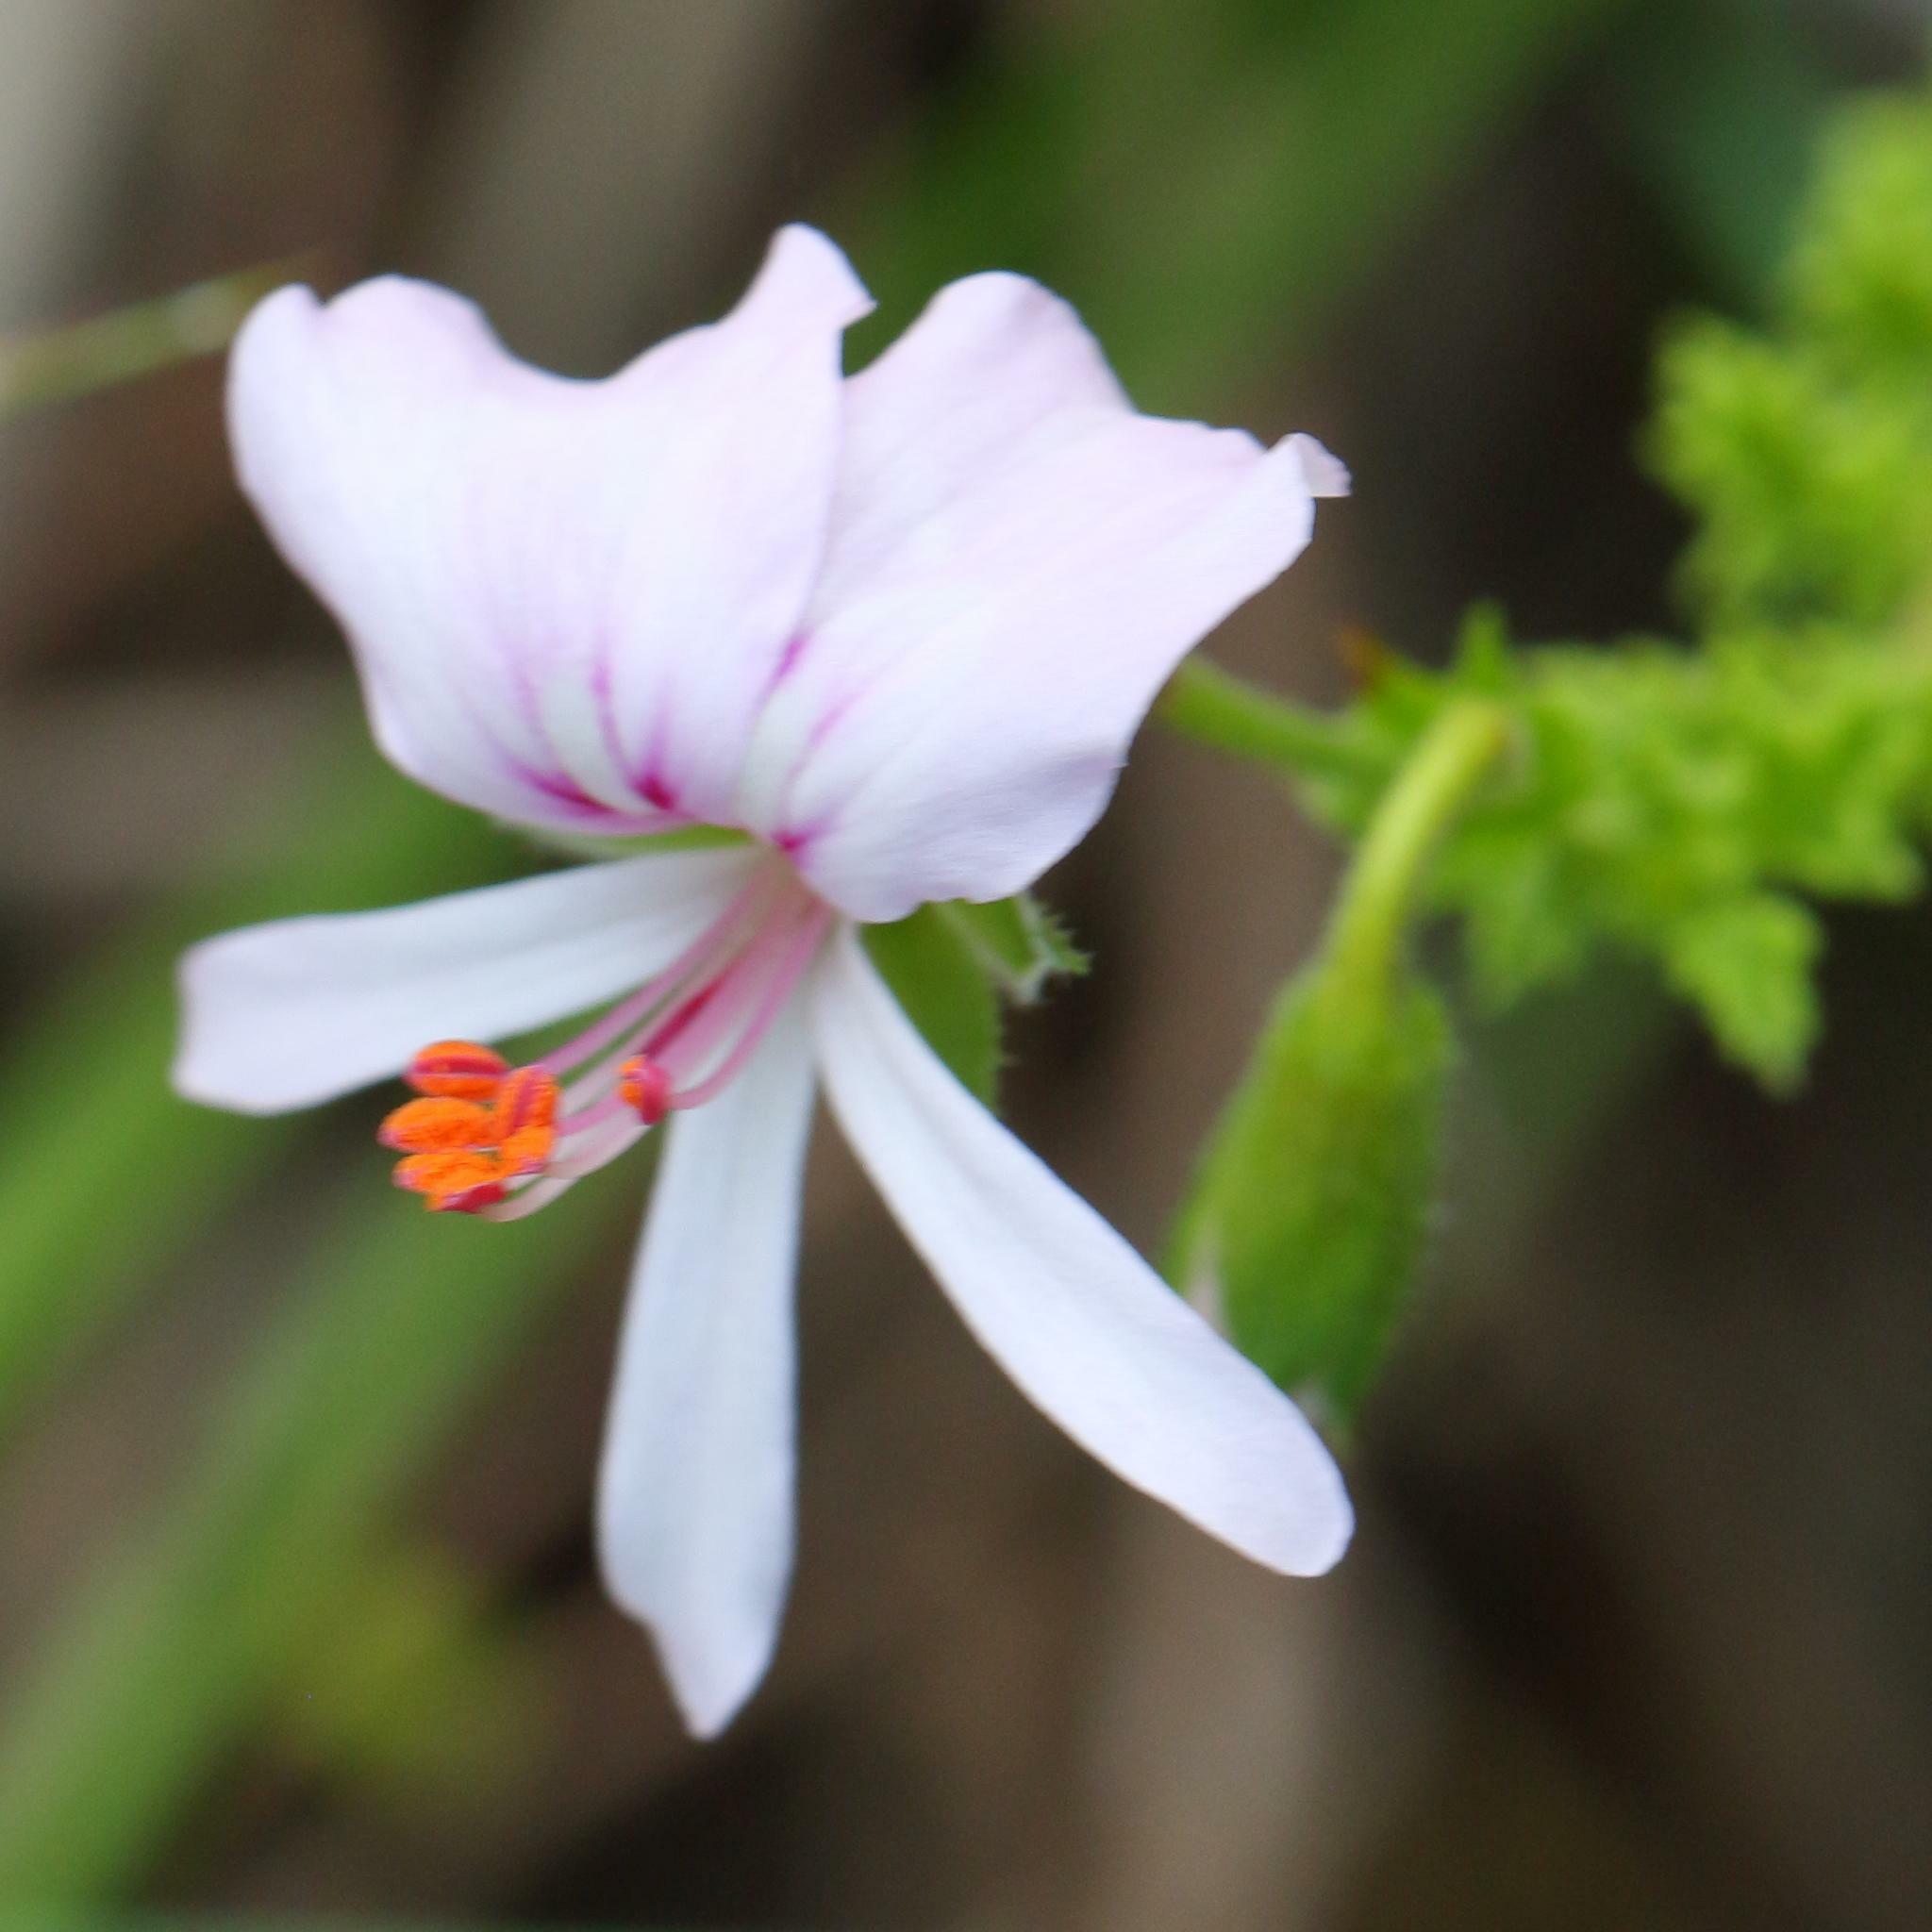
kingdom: Plantae
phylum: Tracheophyta
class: Magnoliopsida
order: Geraniales
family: Geraniaceae
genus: Pelargonium
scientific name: Pelargonium hermaniifolium
